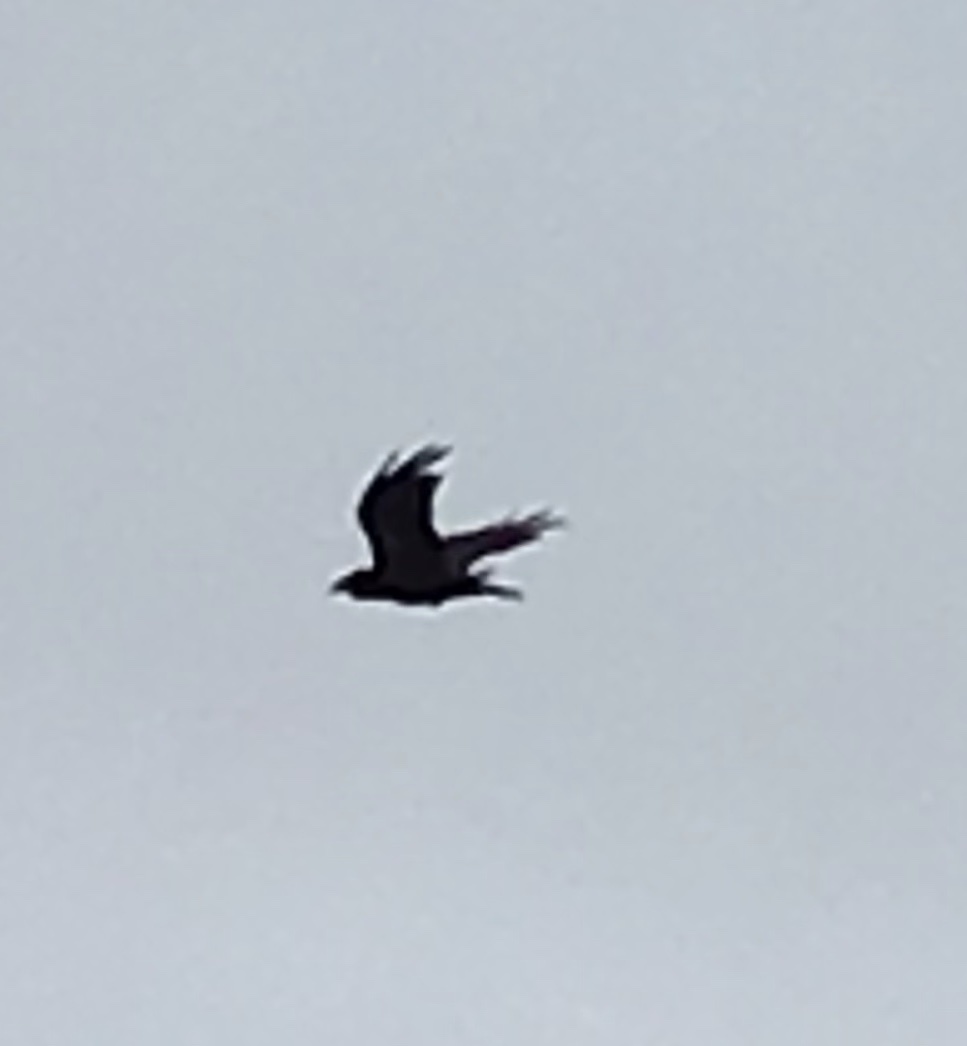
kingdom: Animalia
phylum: Chordata
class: Aves
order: Passeriformes
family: Corvidae
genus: Corvus
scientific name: Corvus corax
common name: Common raven
